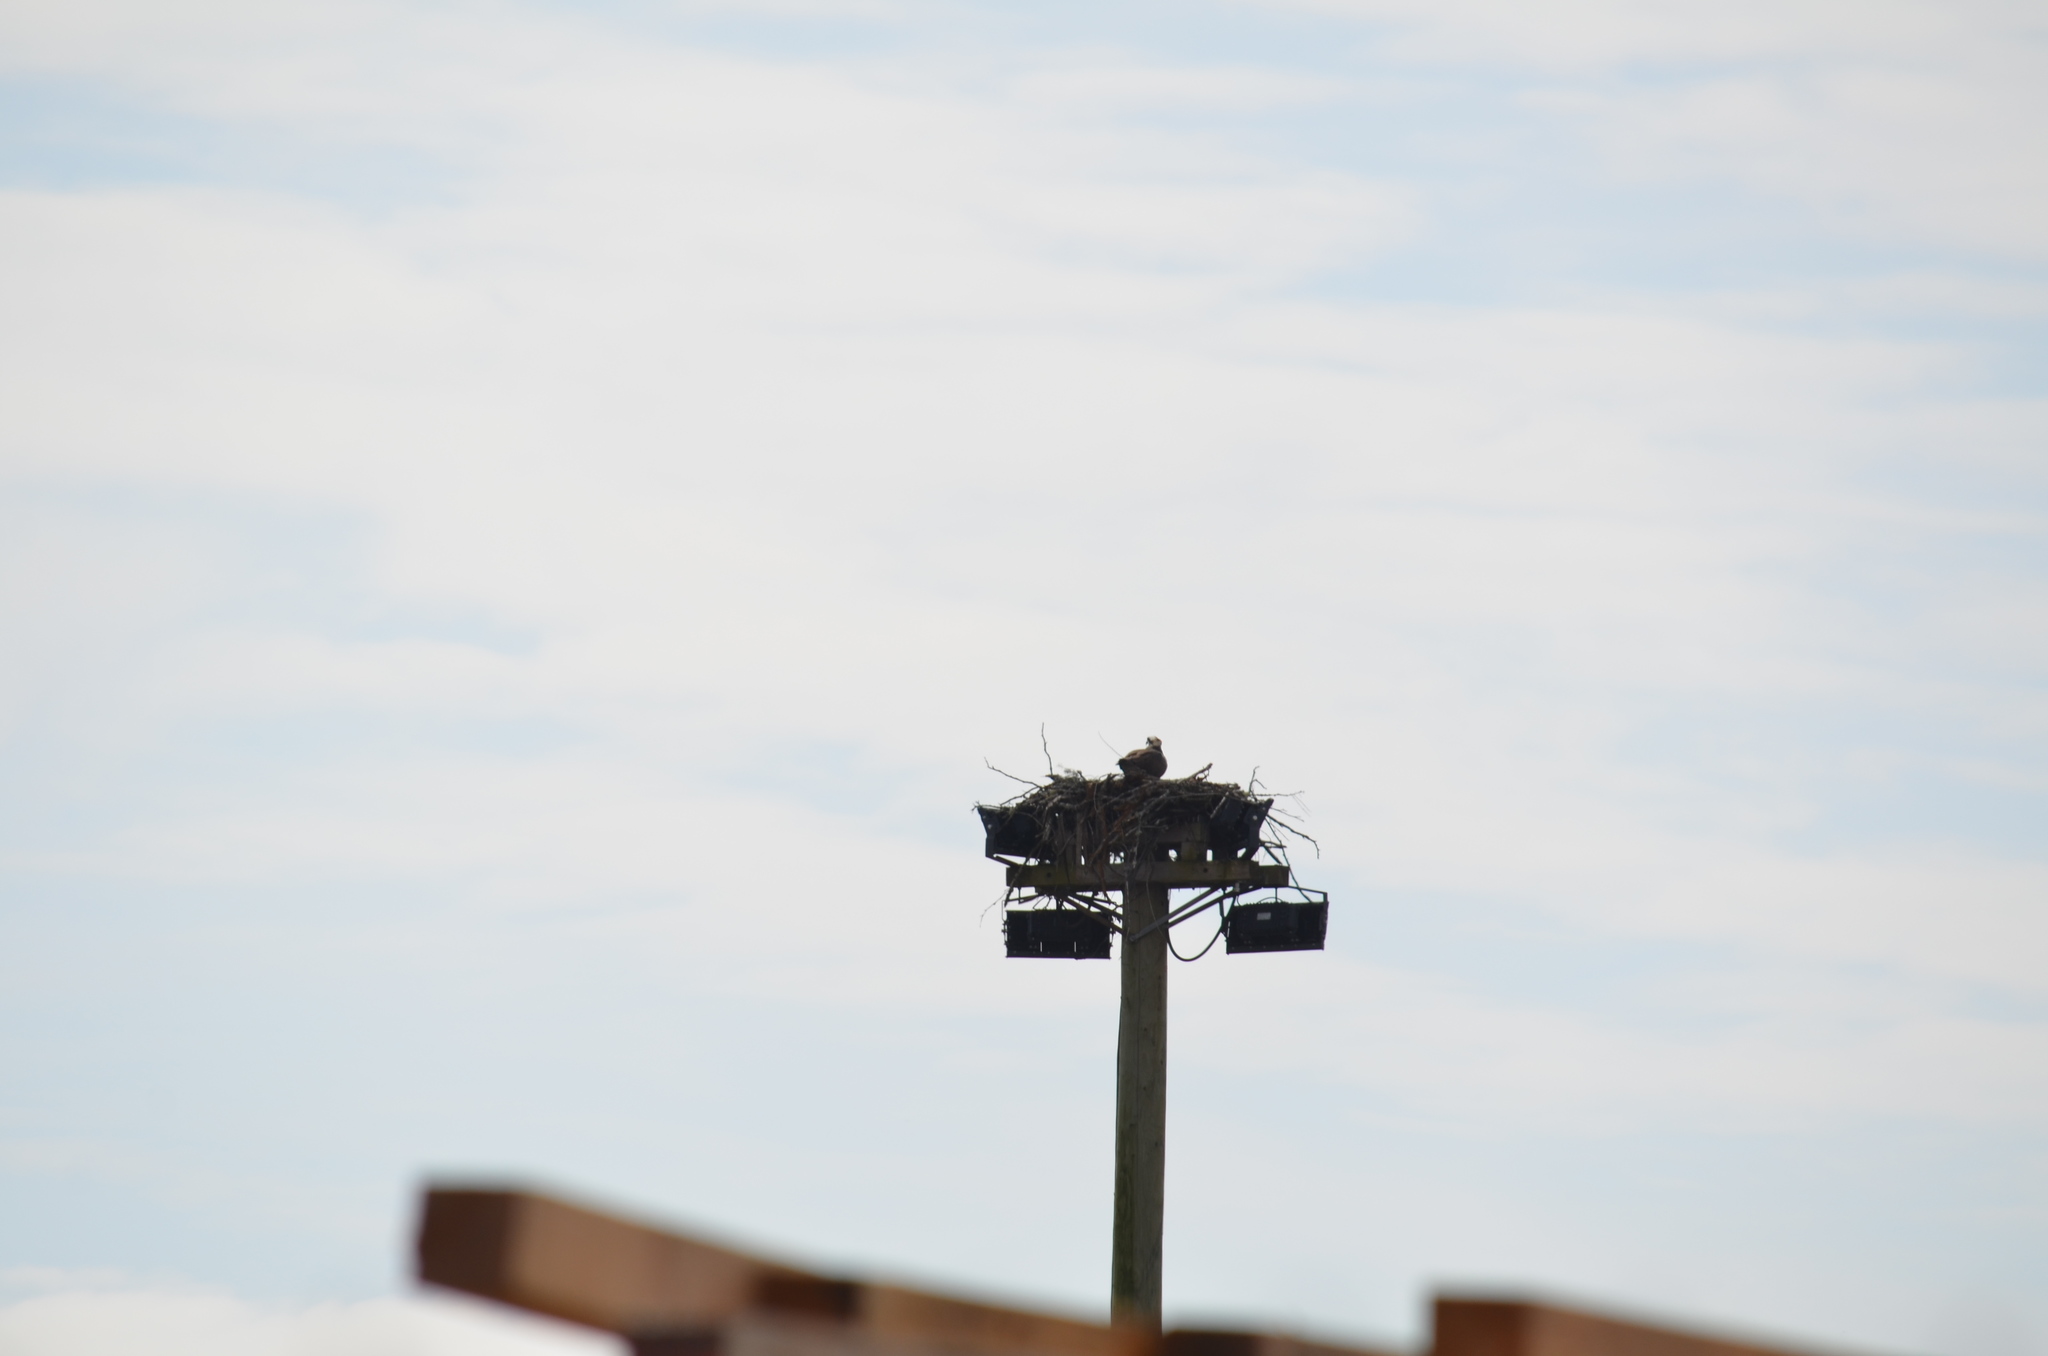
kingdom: Animalia
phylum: Chordata
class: Aves
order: Accipitriformes
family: Pandionidae
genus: Pandion
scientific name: Pandion haliaetus
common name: Osprey
